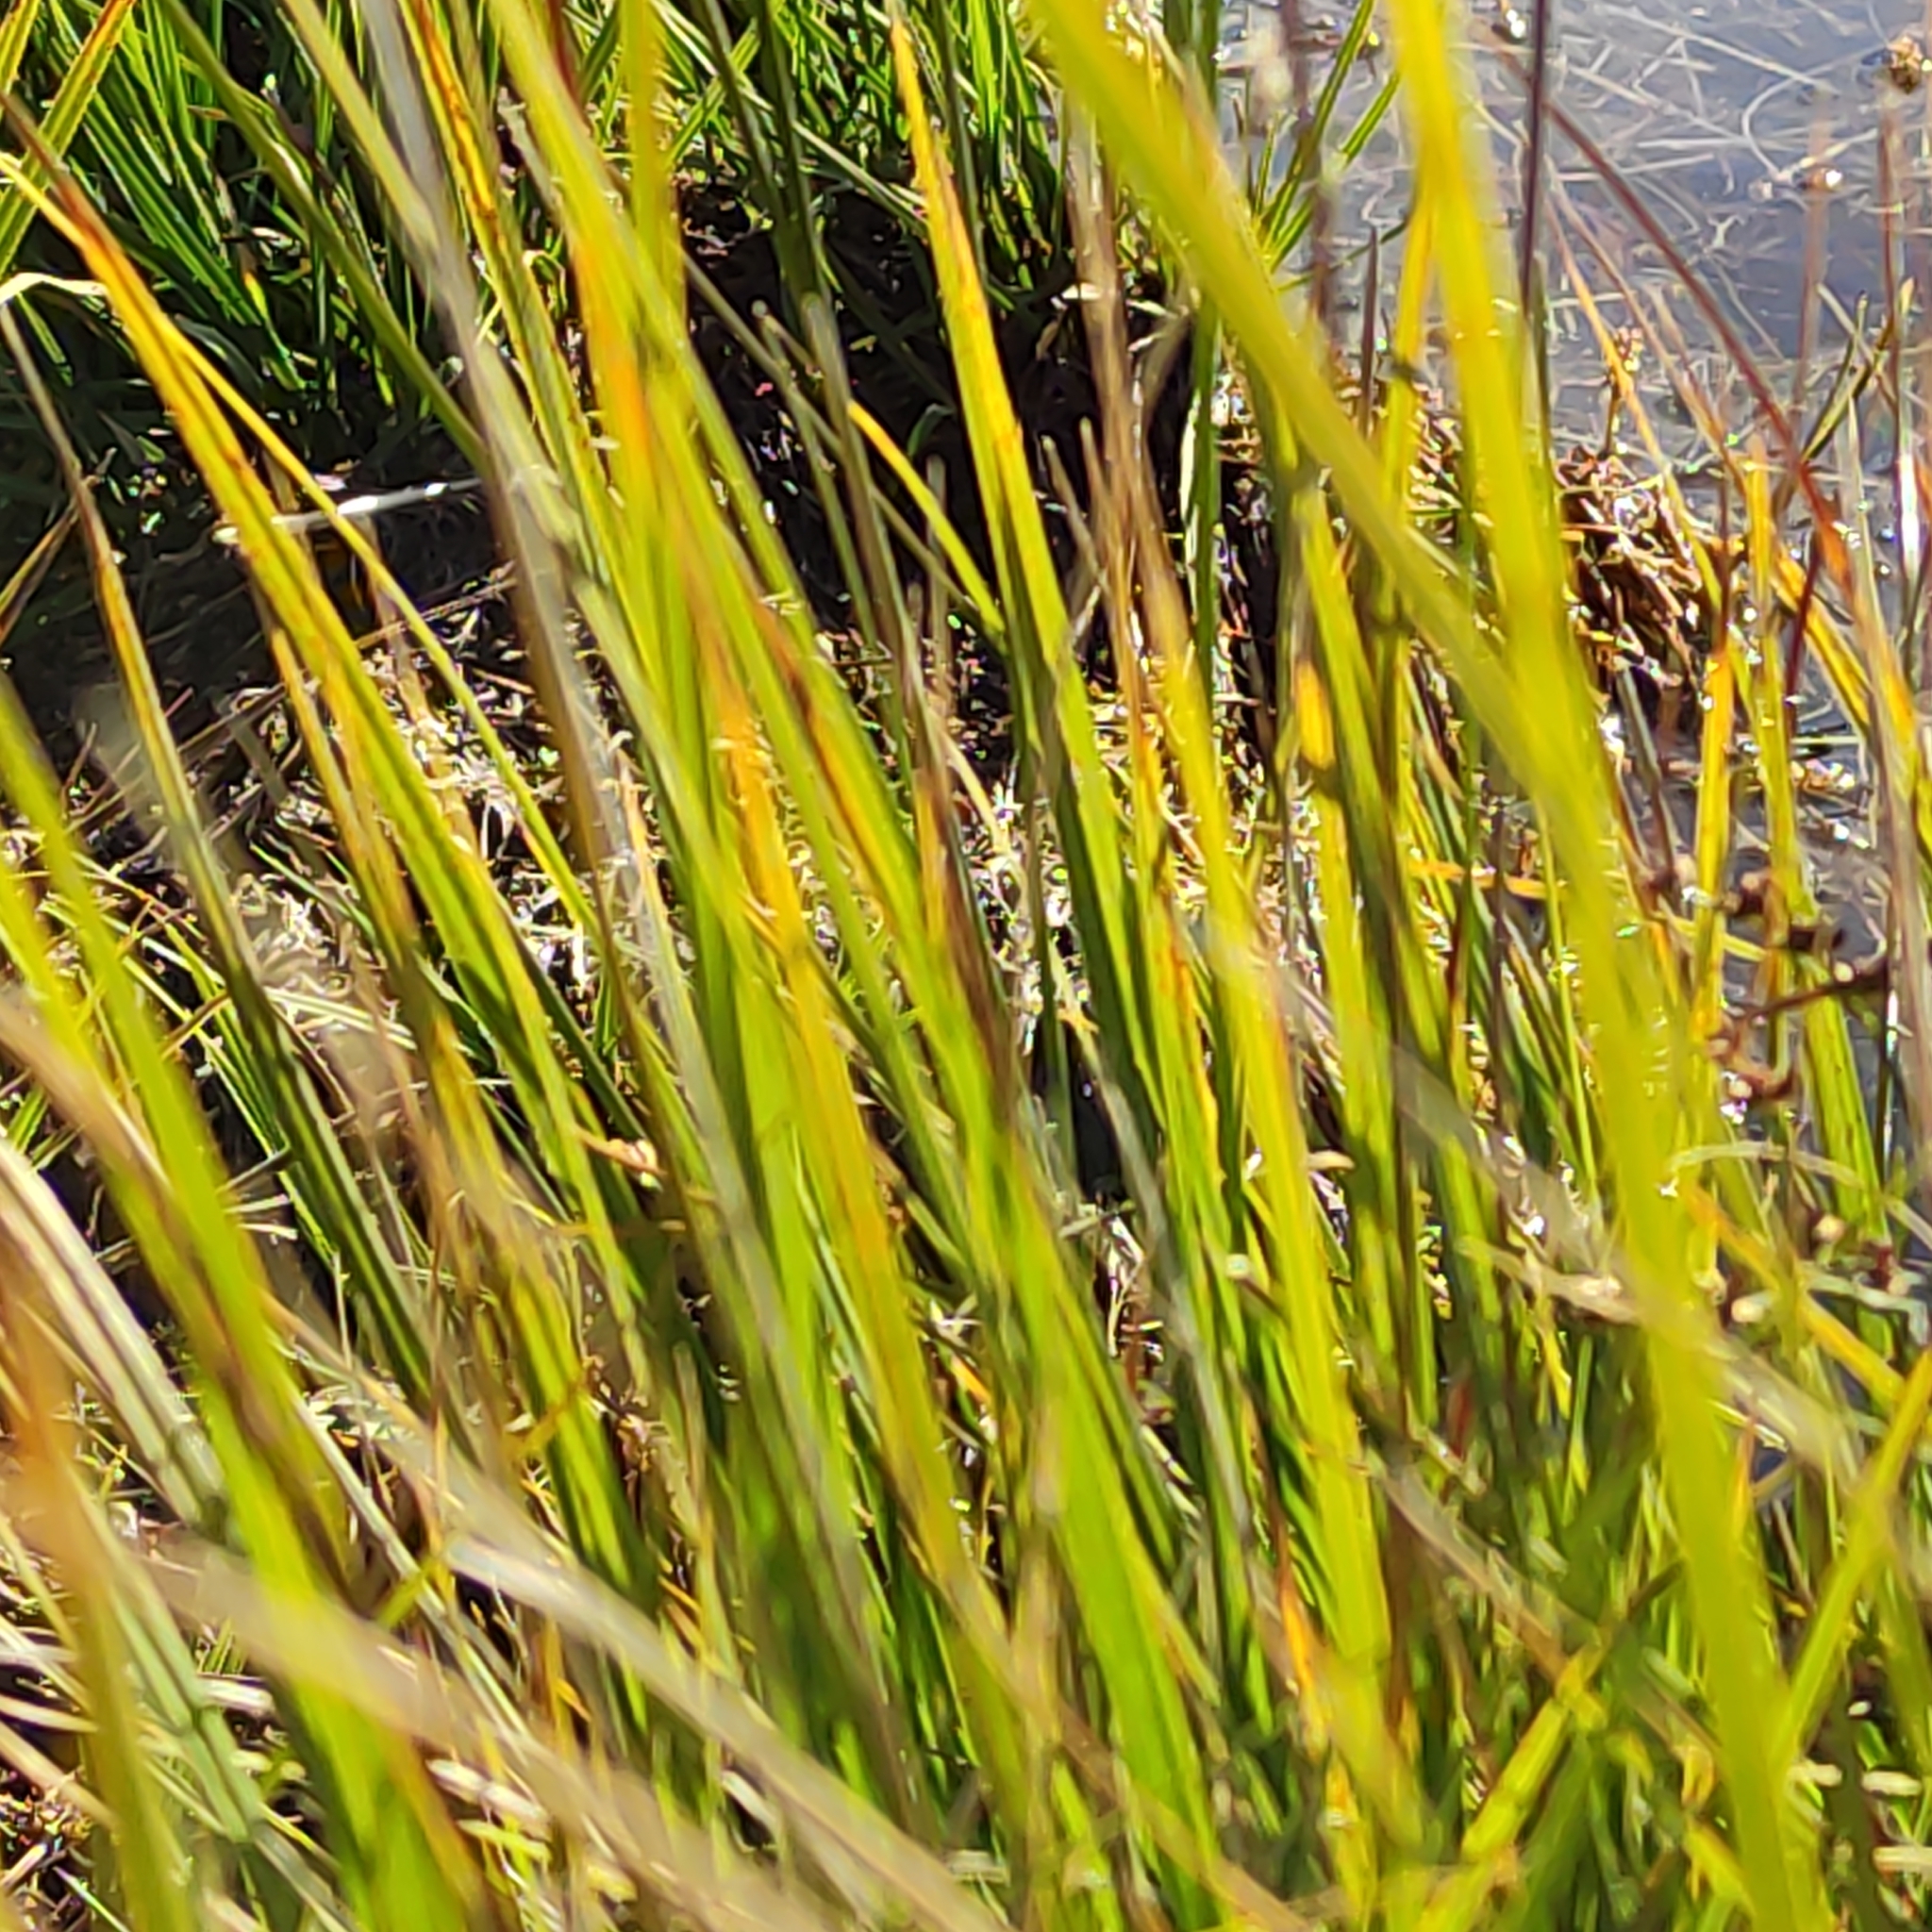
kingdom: Plantae
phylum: Tracheophyta
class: Liliopsida
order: Poales
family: Cyperaceae
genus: Carex
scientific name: Carex leporina
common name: Oval sedge
